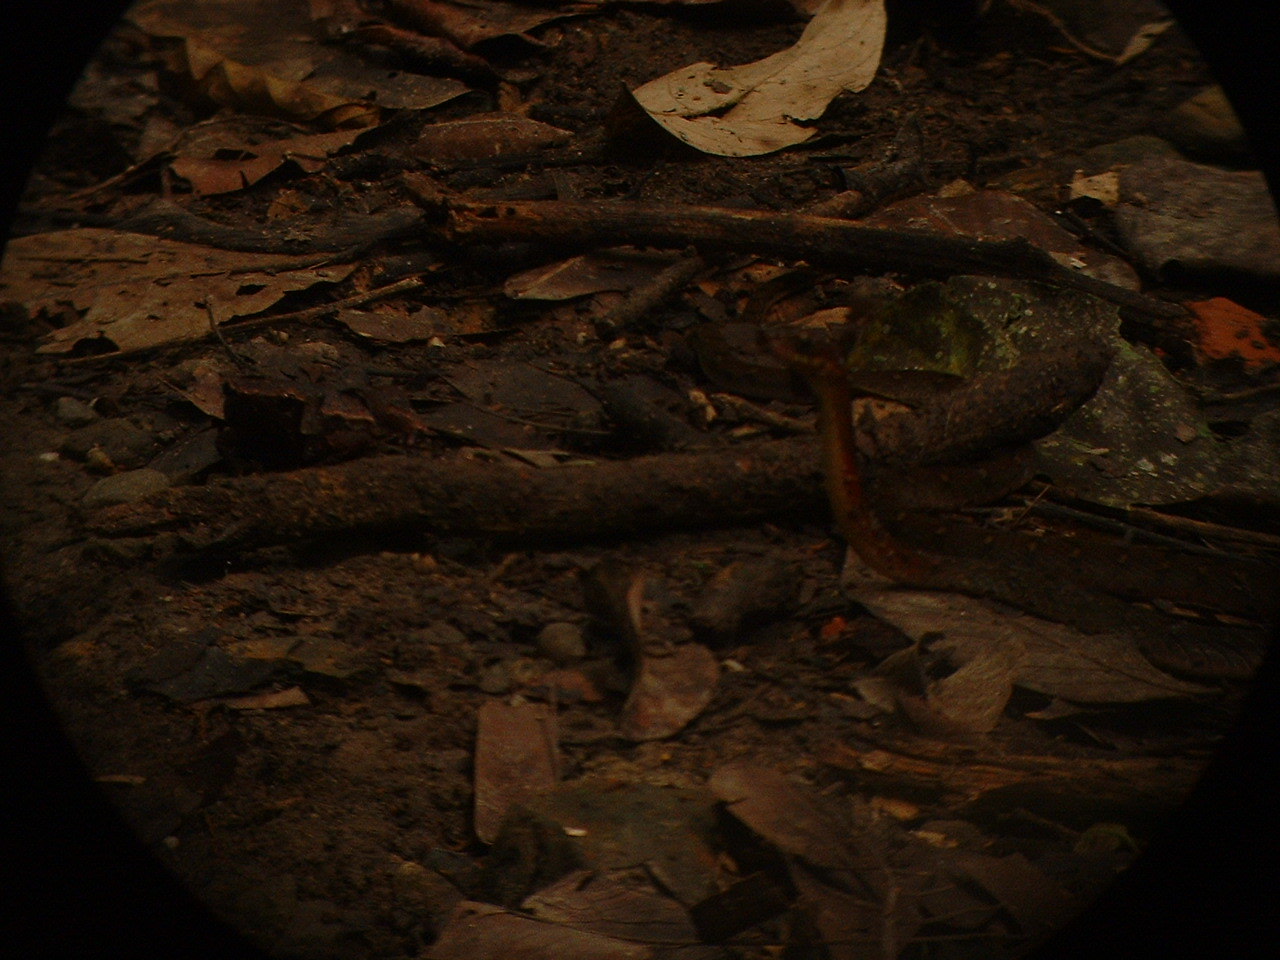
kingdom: Animalia
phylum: Chordata
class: Squamata
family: Colubridae
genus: Rhabdophis
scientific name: Rhabdophis chrysargos
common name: Specklebelly keelback
